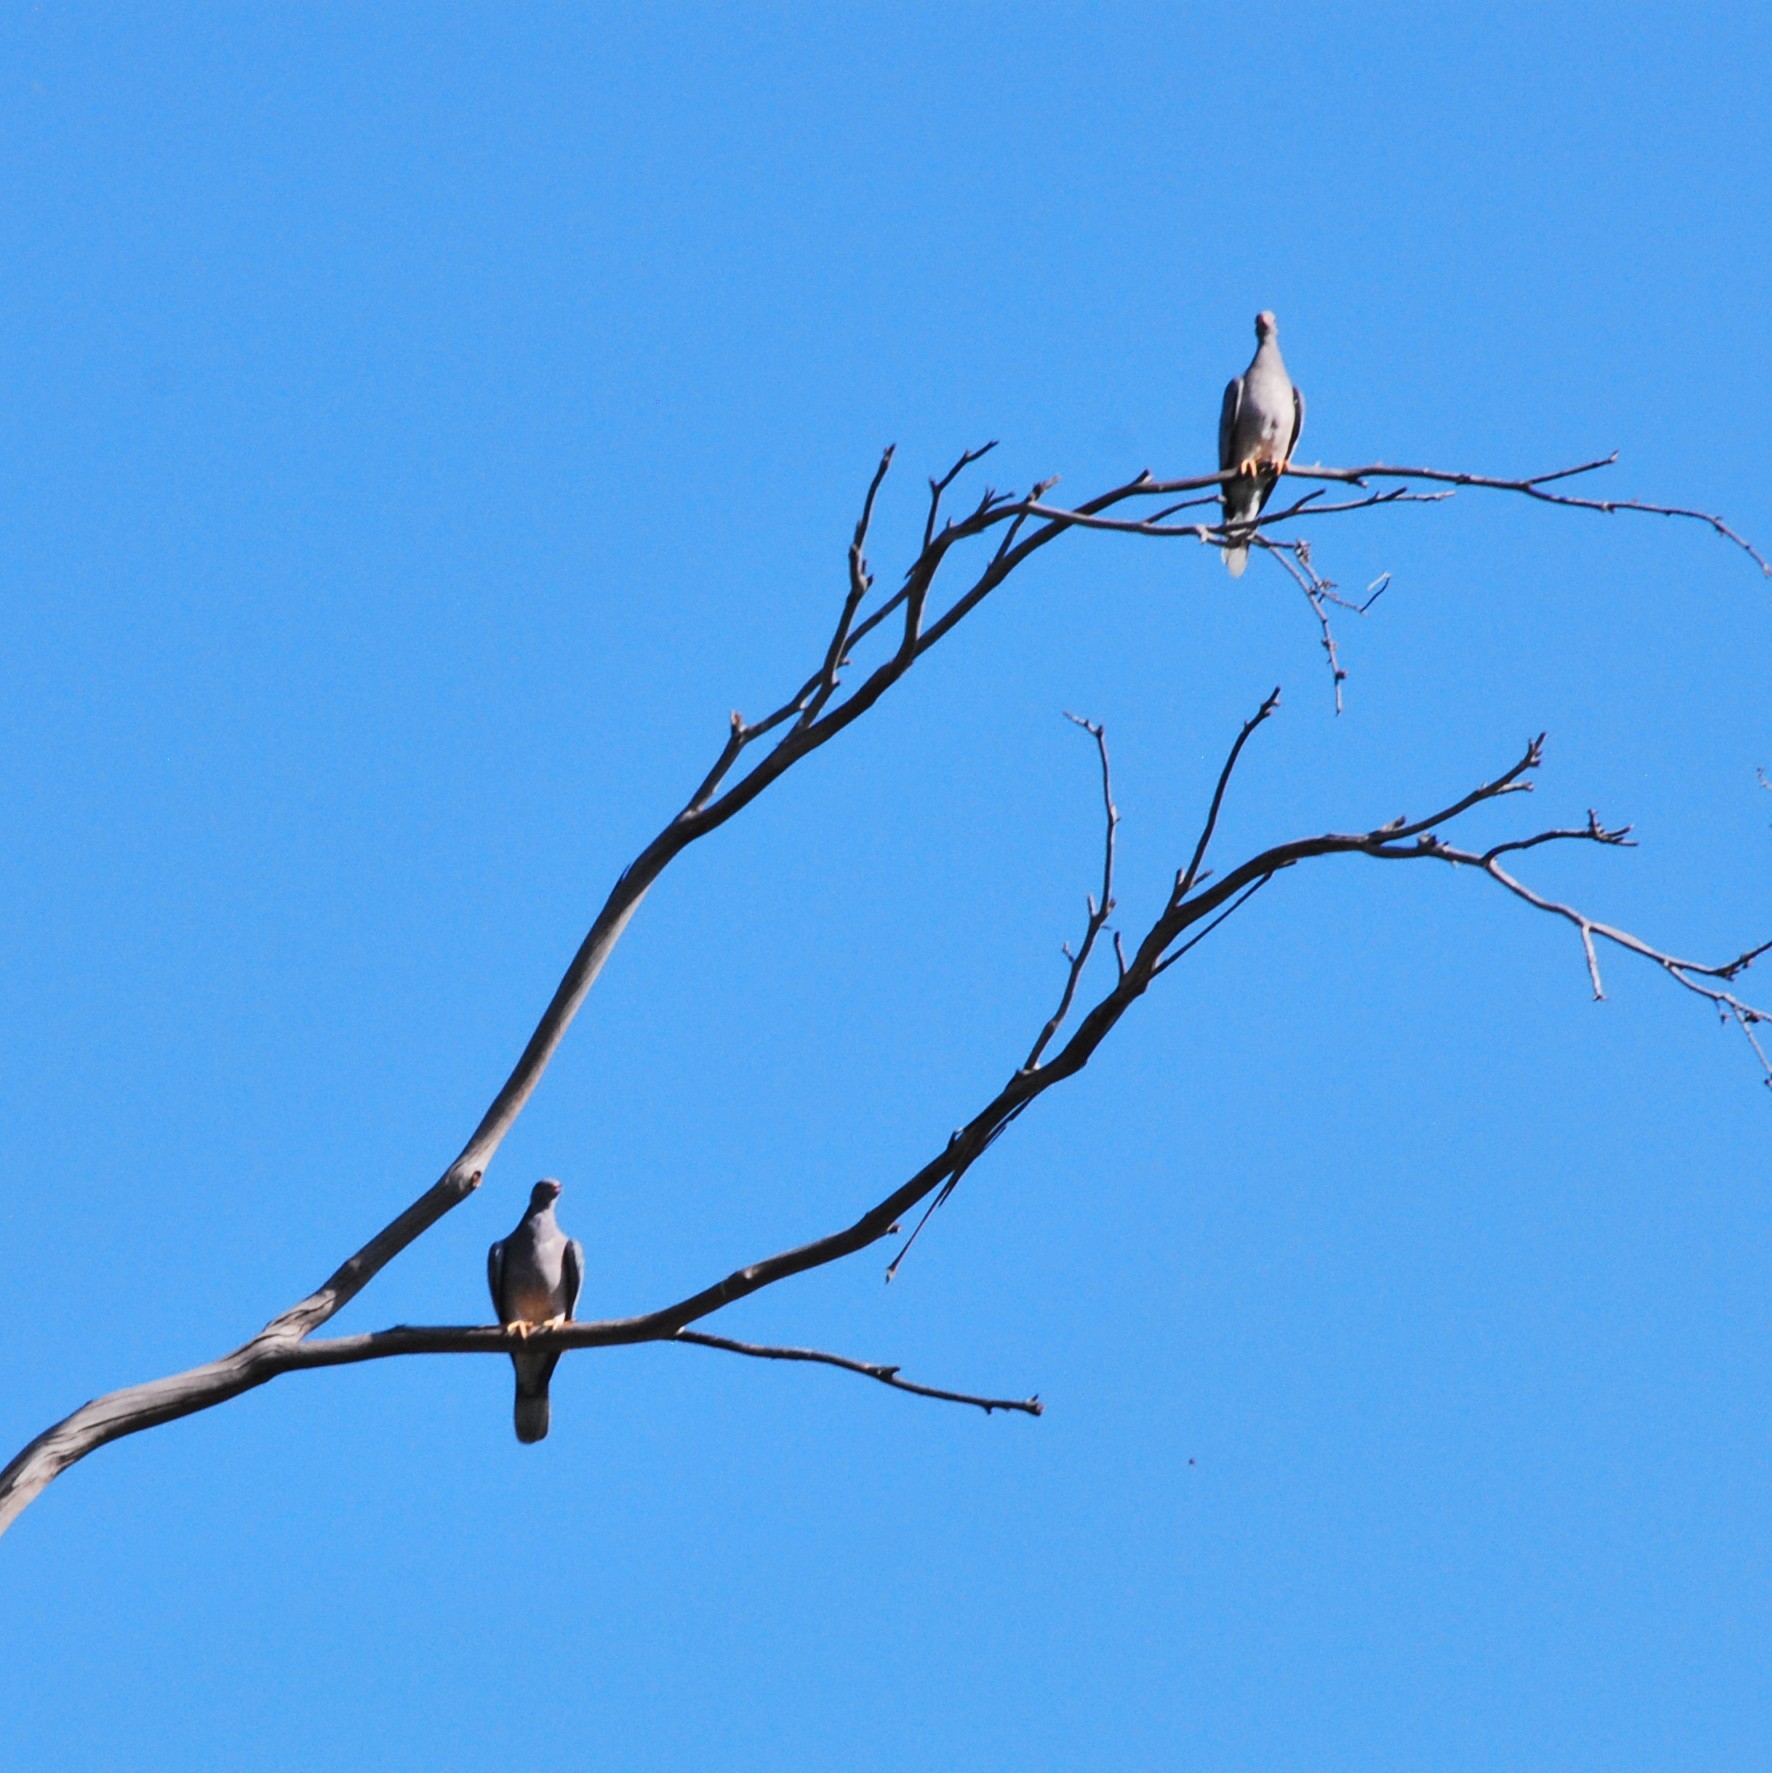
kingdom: Animalia
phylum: Chordata
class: Aves
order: Columbiformes
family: Columbidae
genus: Patagioenas
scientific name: Patagioenas fasciata
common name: Band-tailed pigeon
